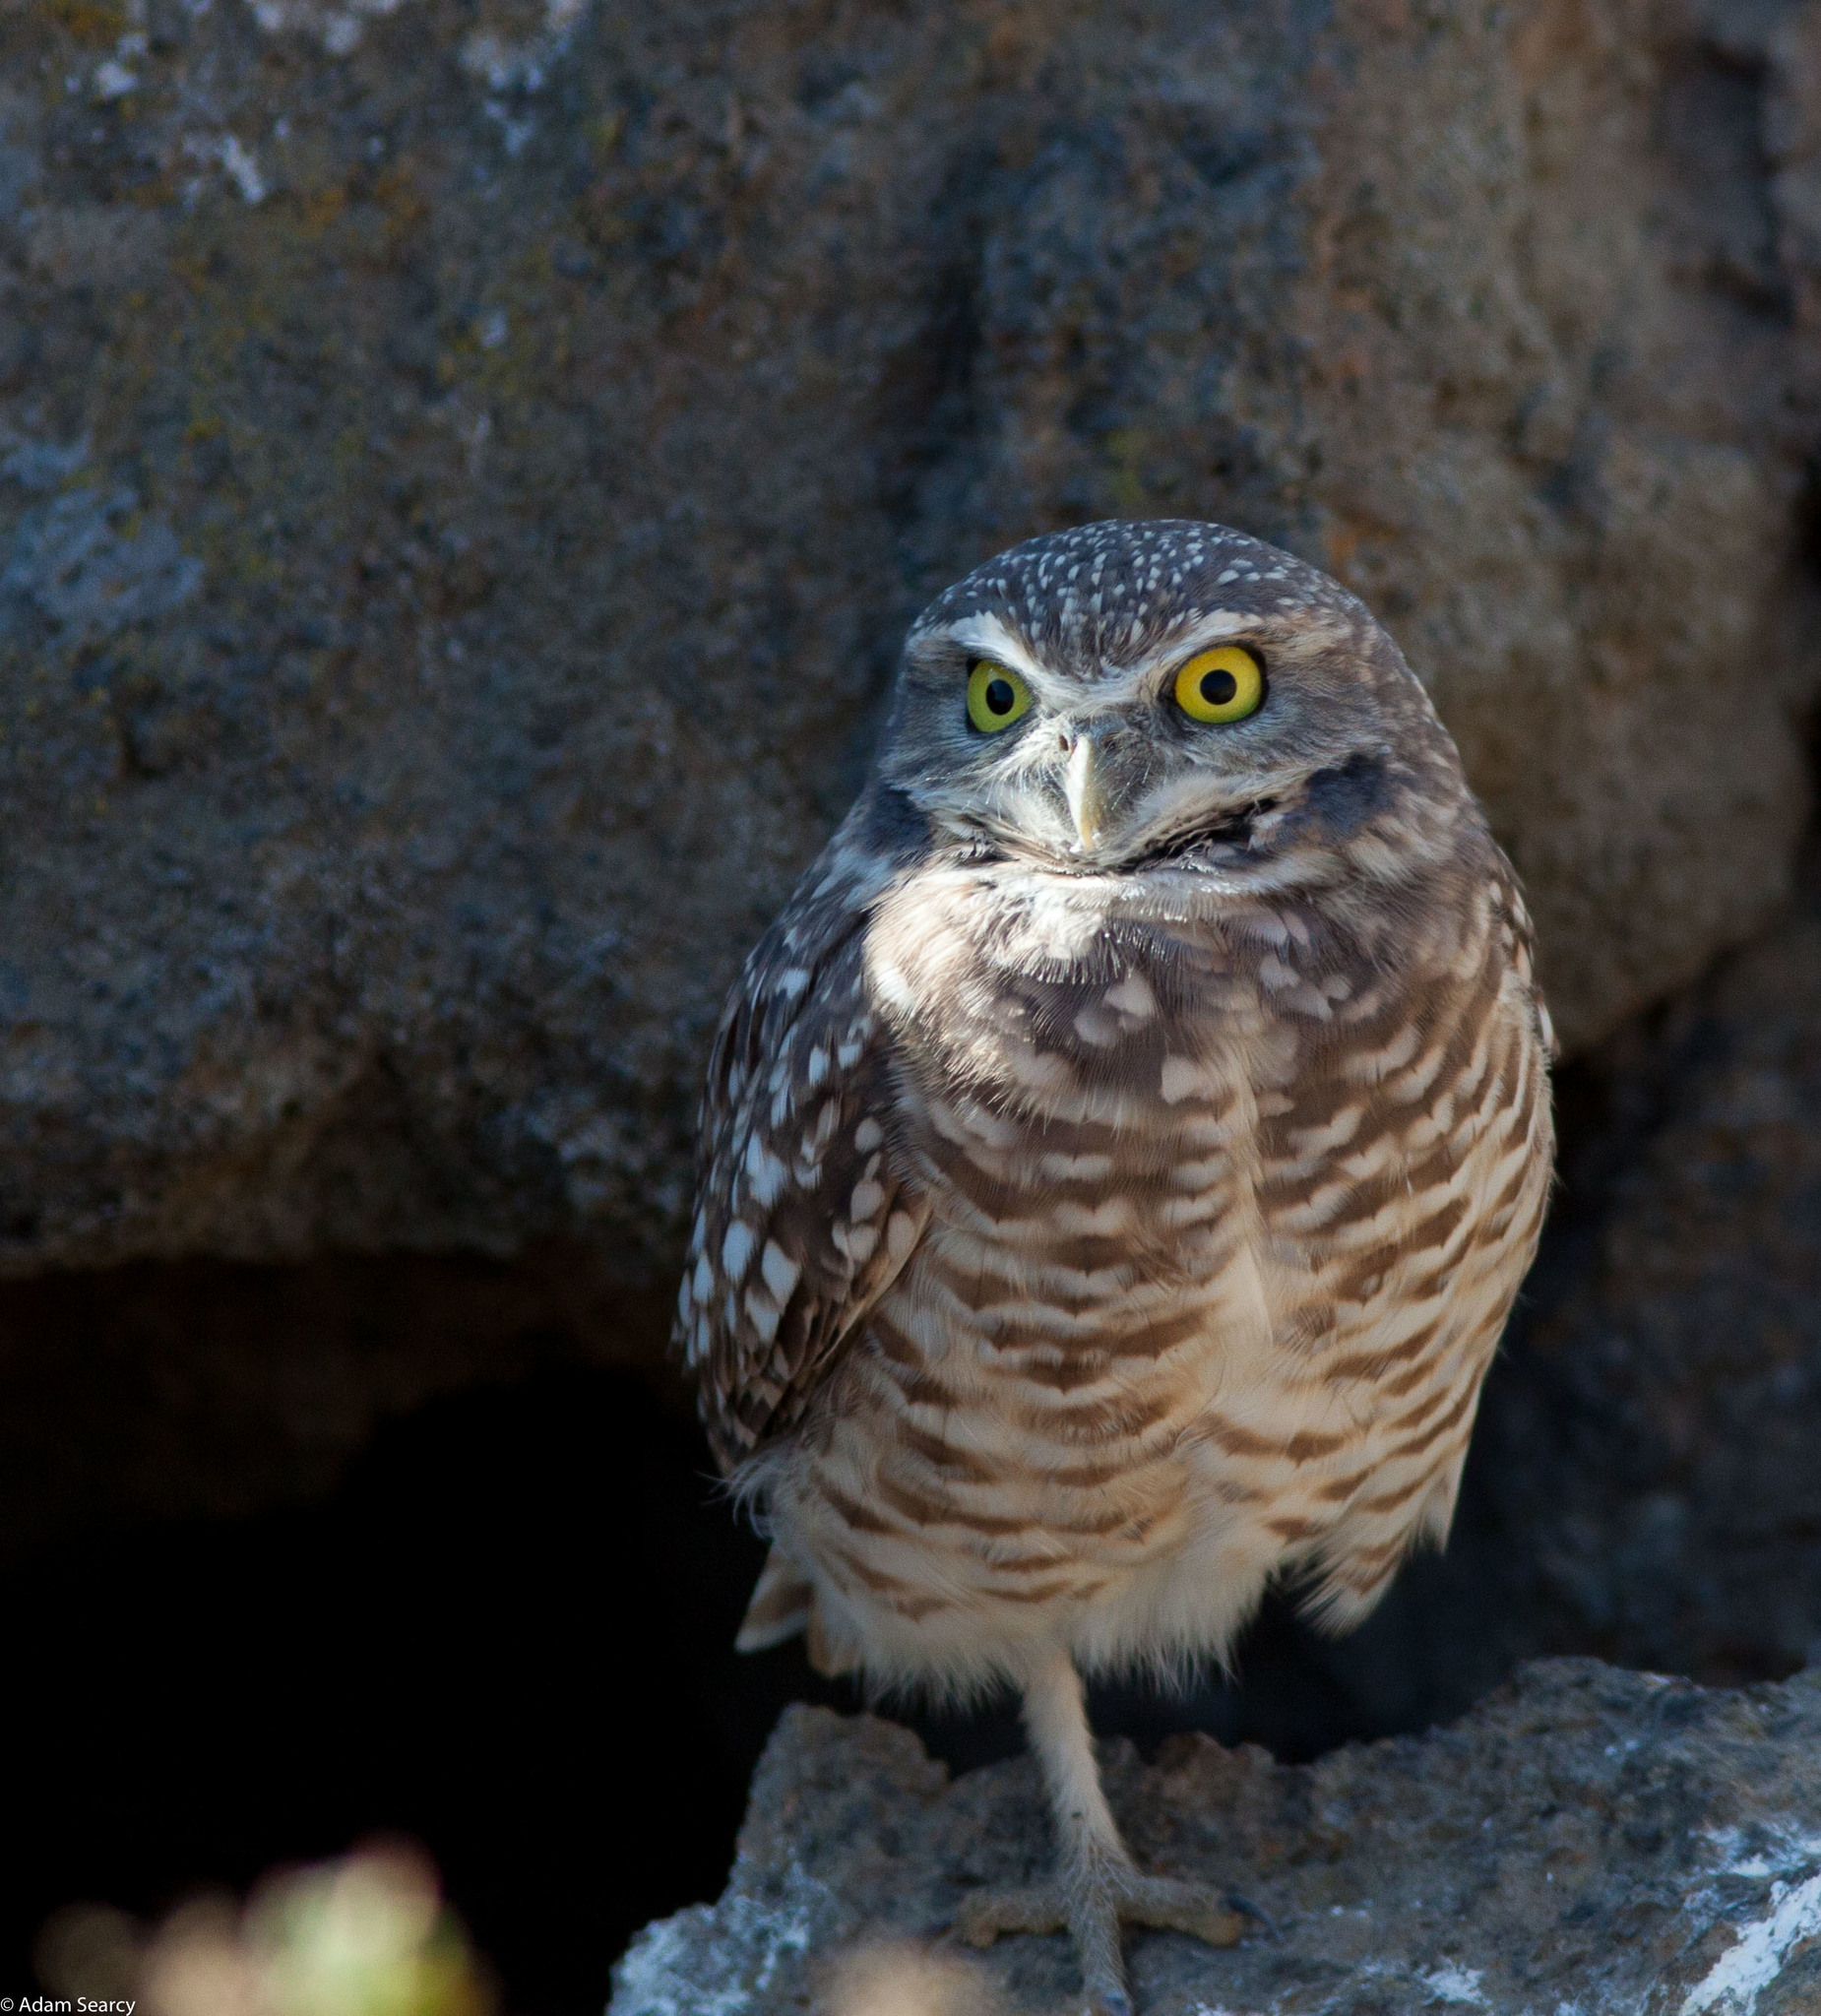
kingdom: Animalia
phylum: Chordata
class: Aves
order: Strigiformes
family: Strigidae
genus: Athene
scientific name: Athene cunicularia
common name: Burrowing owl
